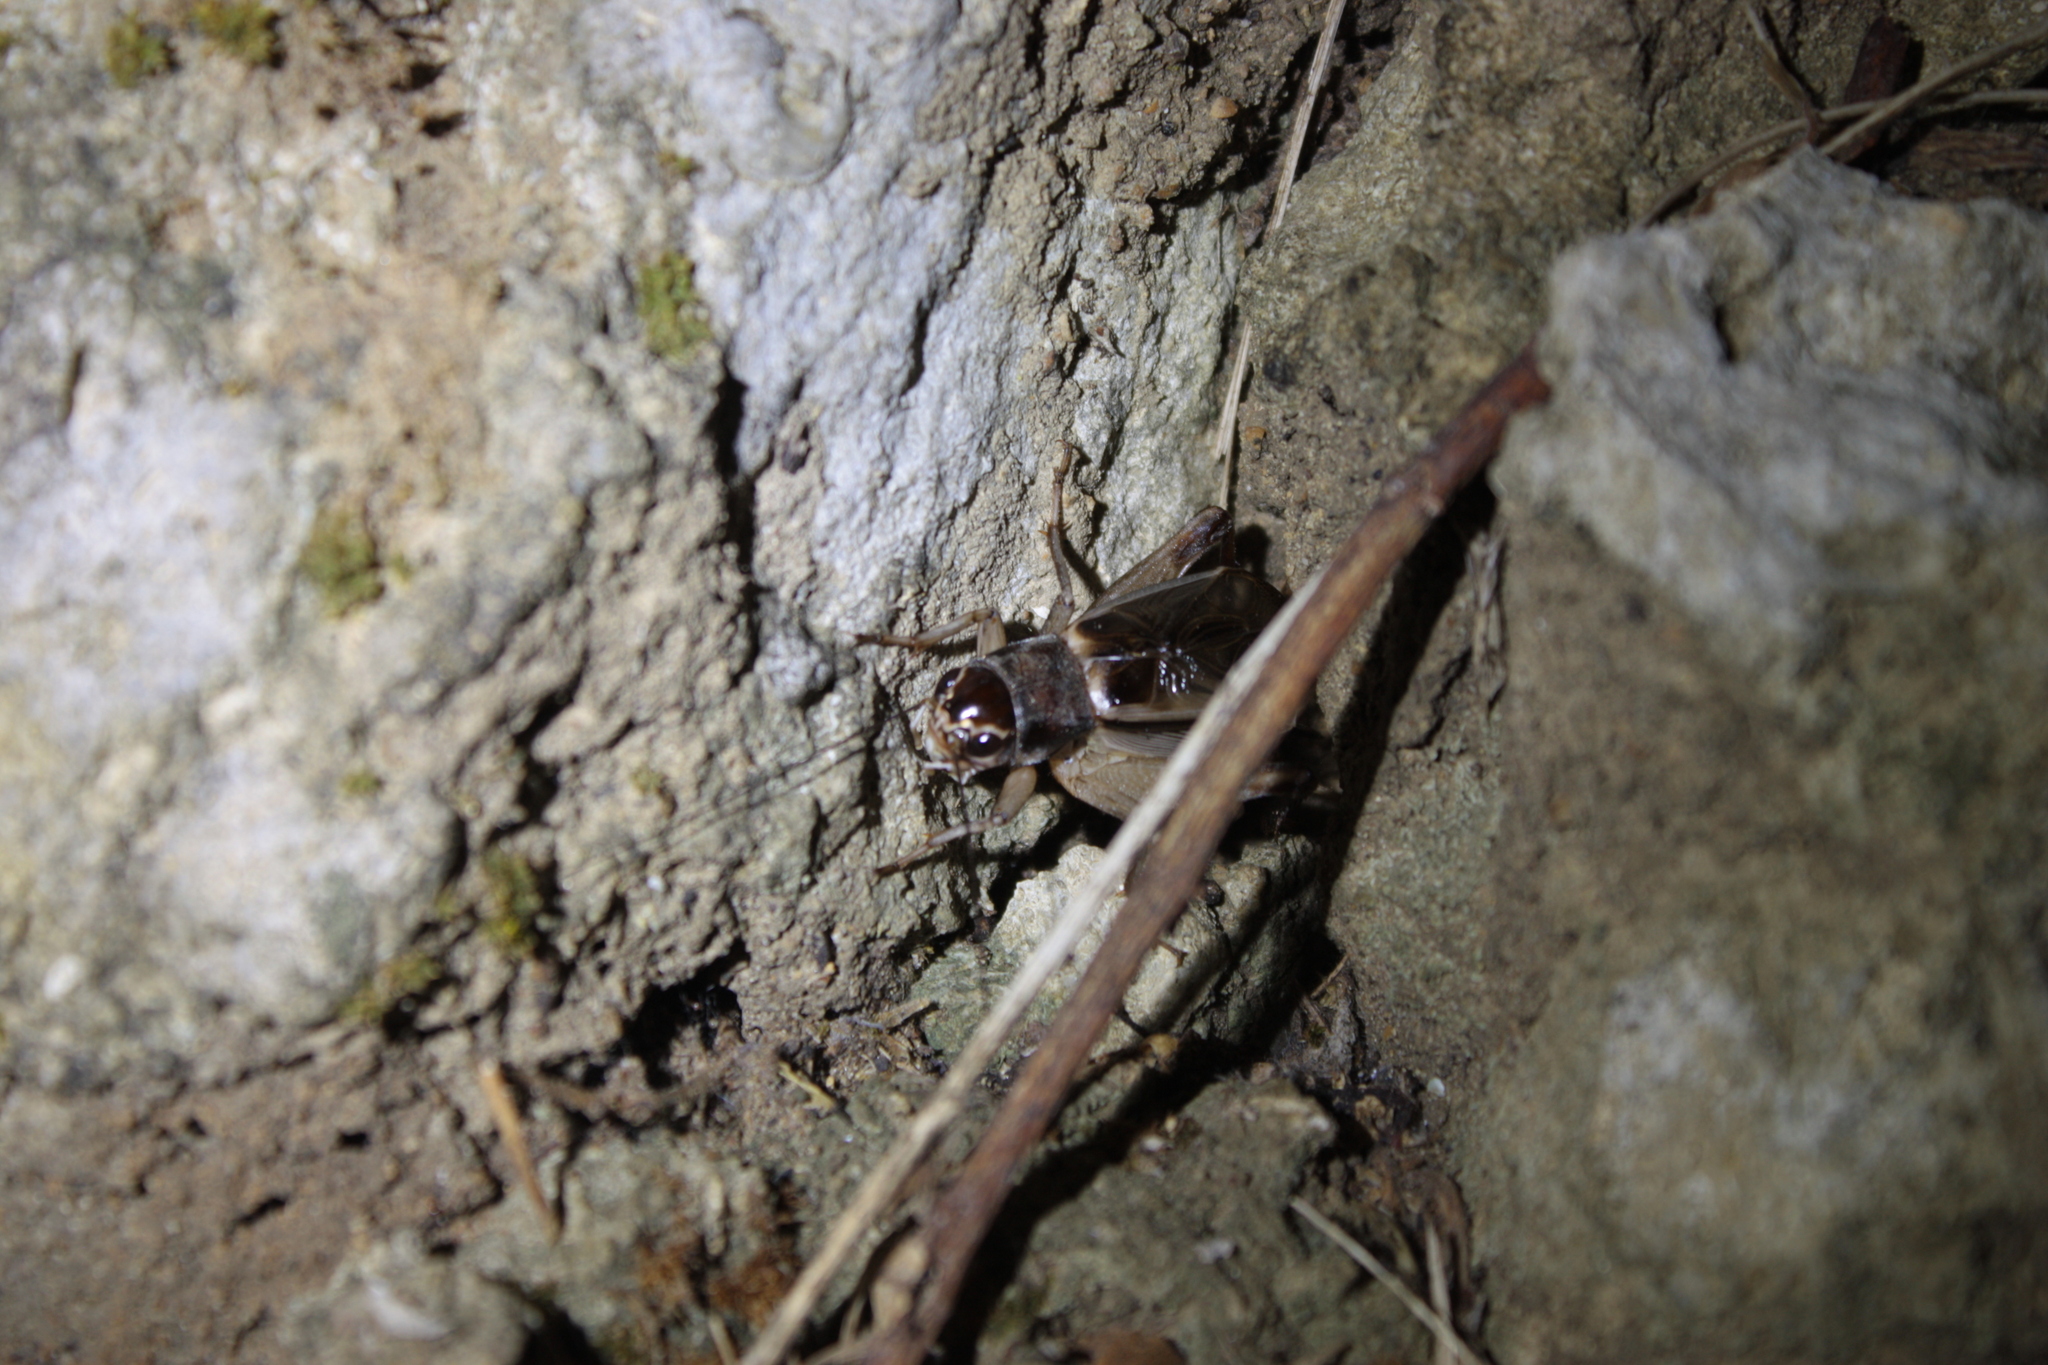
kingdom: Animalia
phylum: Arthropoda
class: Insecta
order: Orthoptera
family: Gryllidae
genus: Teleogryllus
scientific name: Teleogryllus mitratus
